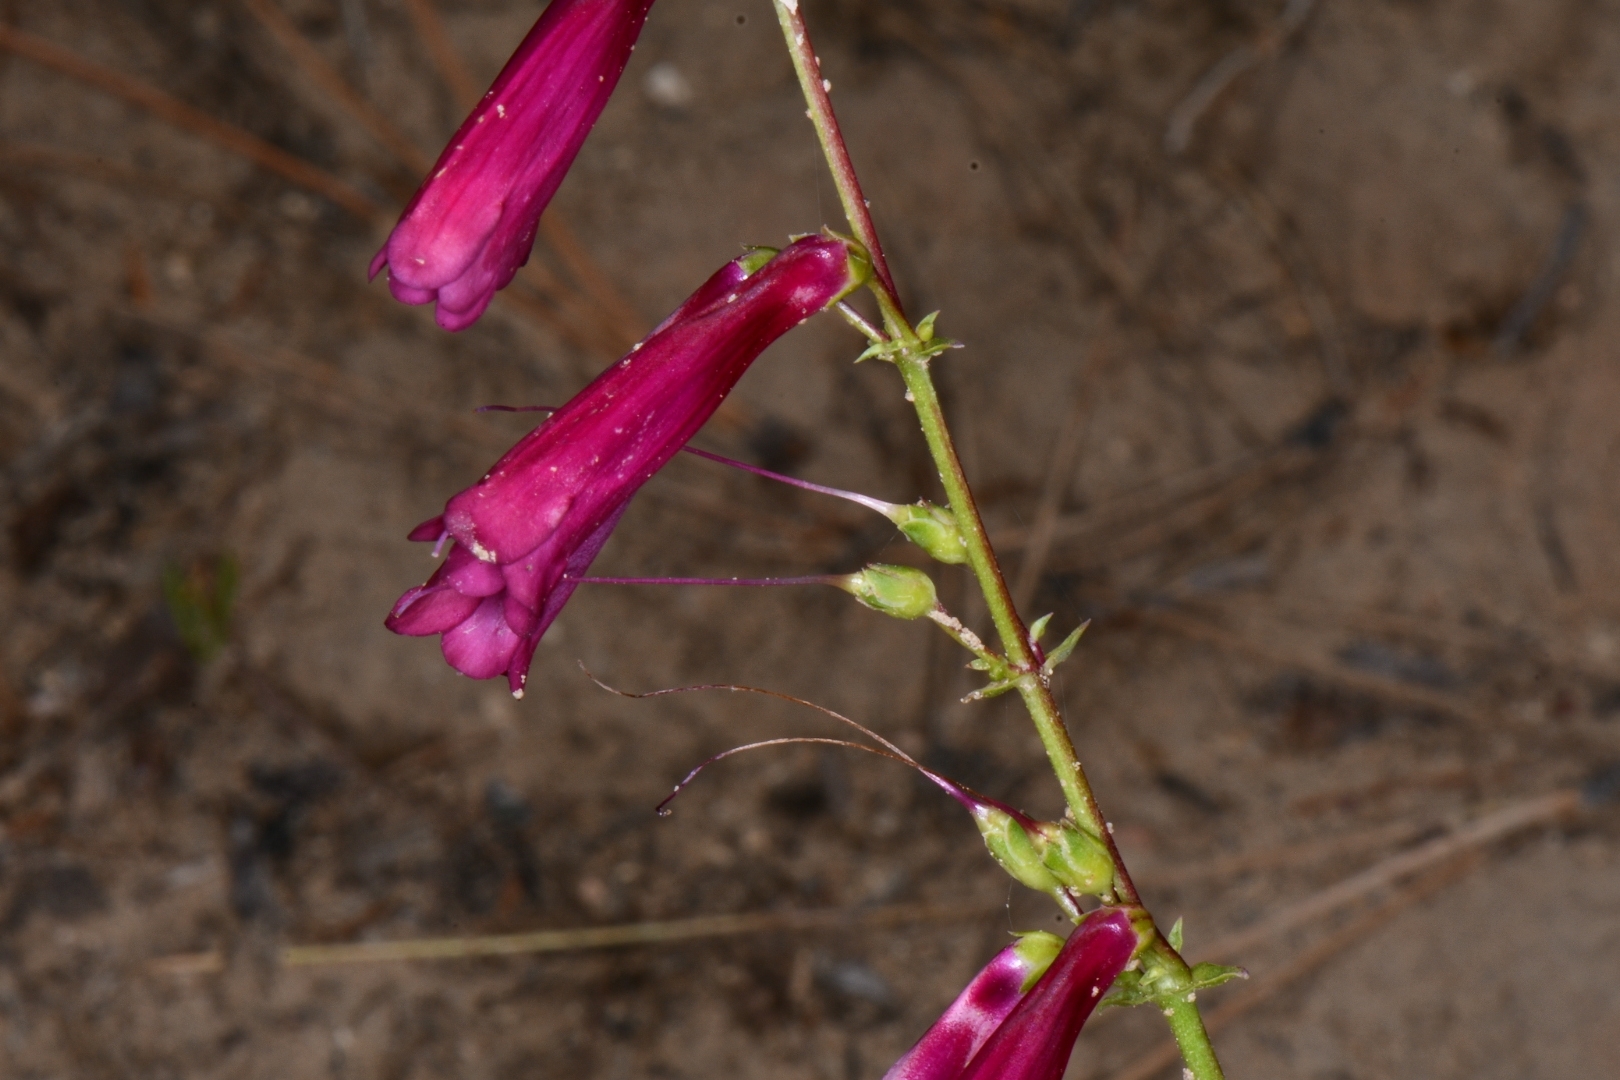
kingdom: Plantae
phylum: Tracheophyta
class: Magnoliopsida
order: Lamiales
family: Plantaginaceae
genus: Penstemon
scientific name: Penstemon jonesii
